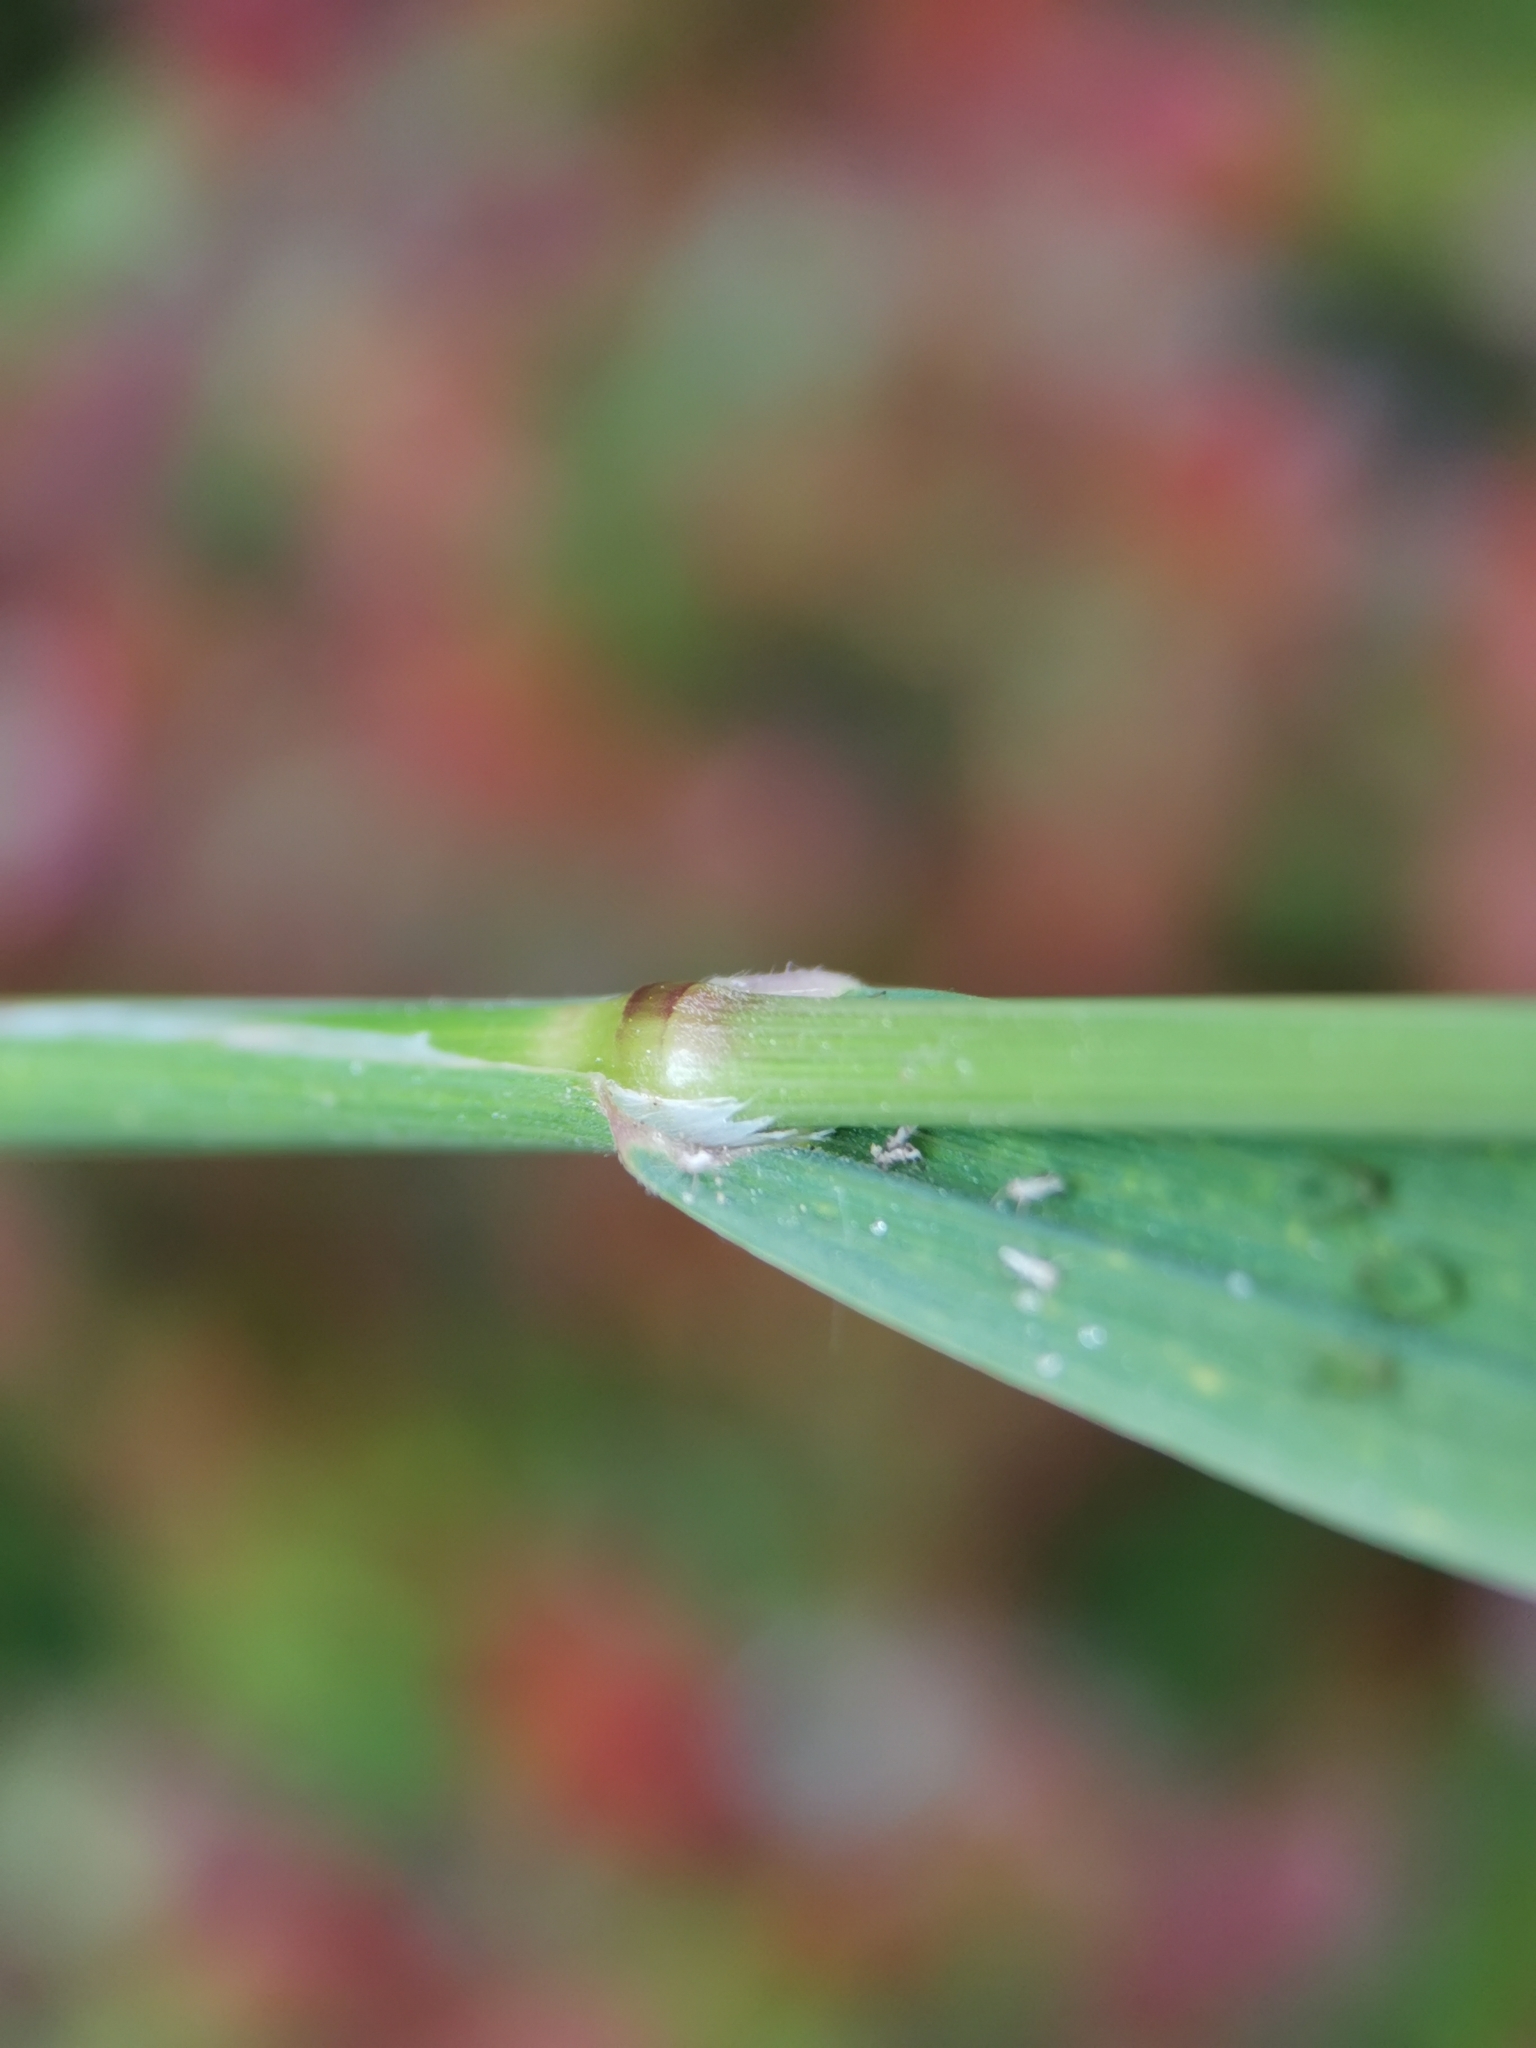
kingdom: Plantae
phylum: Tracheophyta
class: Liliopsida
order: Poales
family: Poaceae
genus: Bromus
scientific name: Bromus sterilis
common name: Poverty brome
